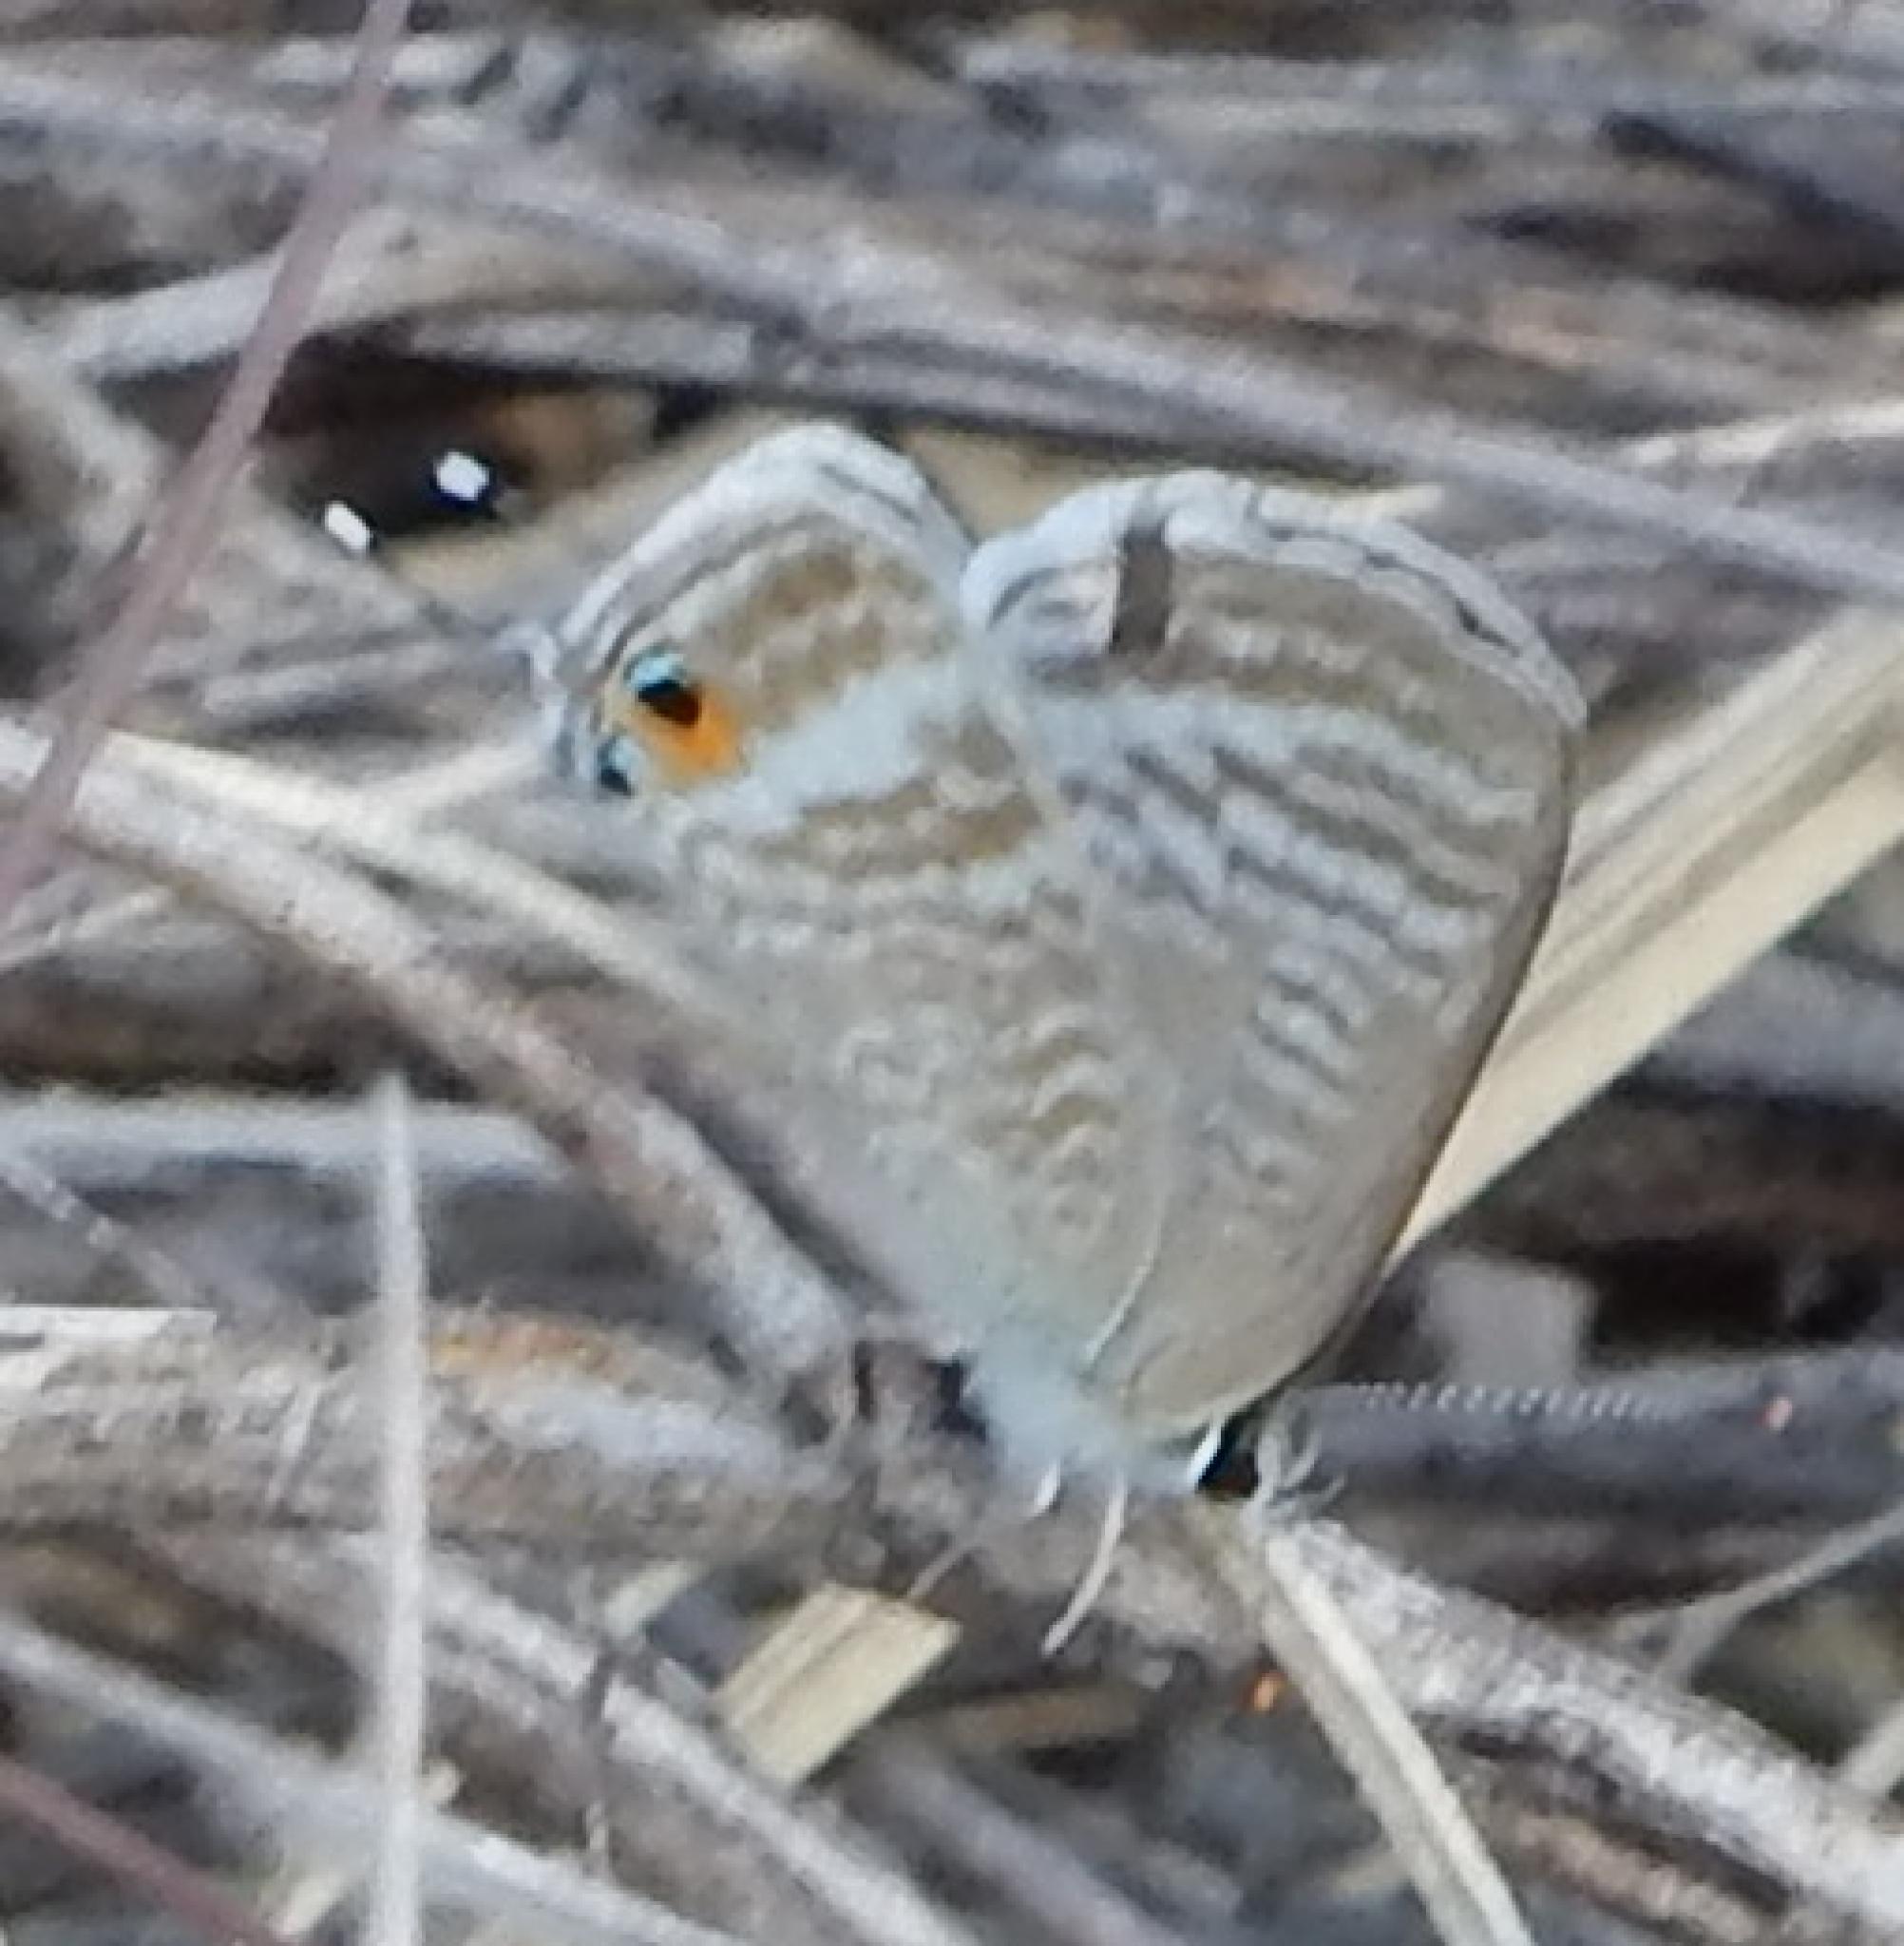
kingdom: Animalia
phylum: Arthropoda
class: Insecta
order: Lepidoptera
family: Lycaenidae
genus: Lampides
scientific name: Lampides boeticus
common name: Long-tailed blue
